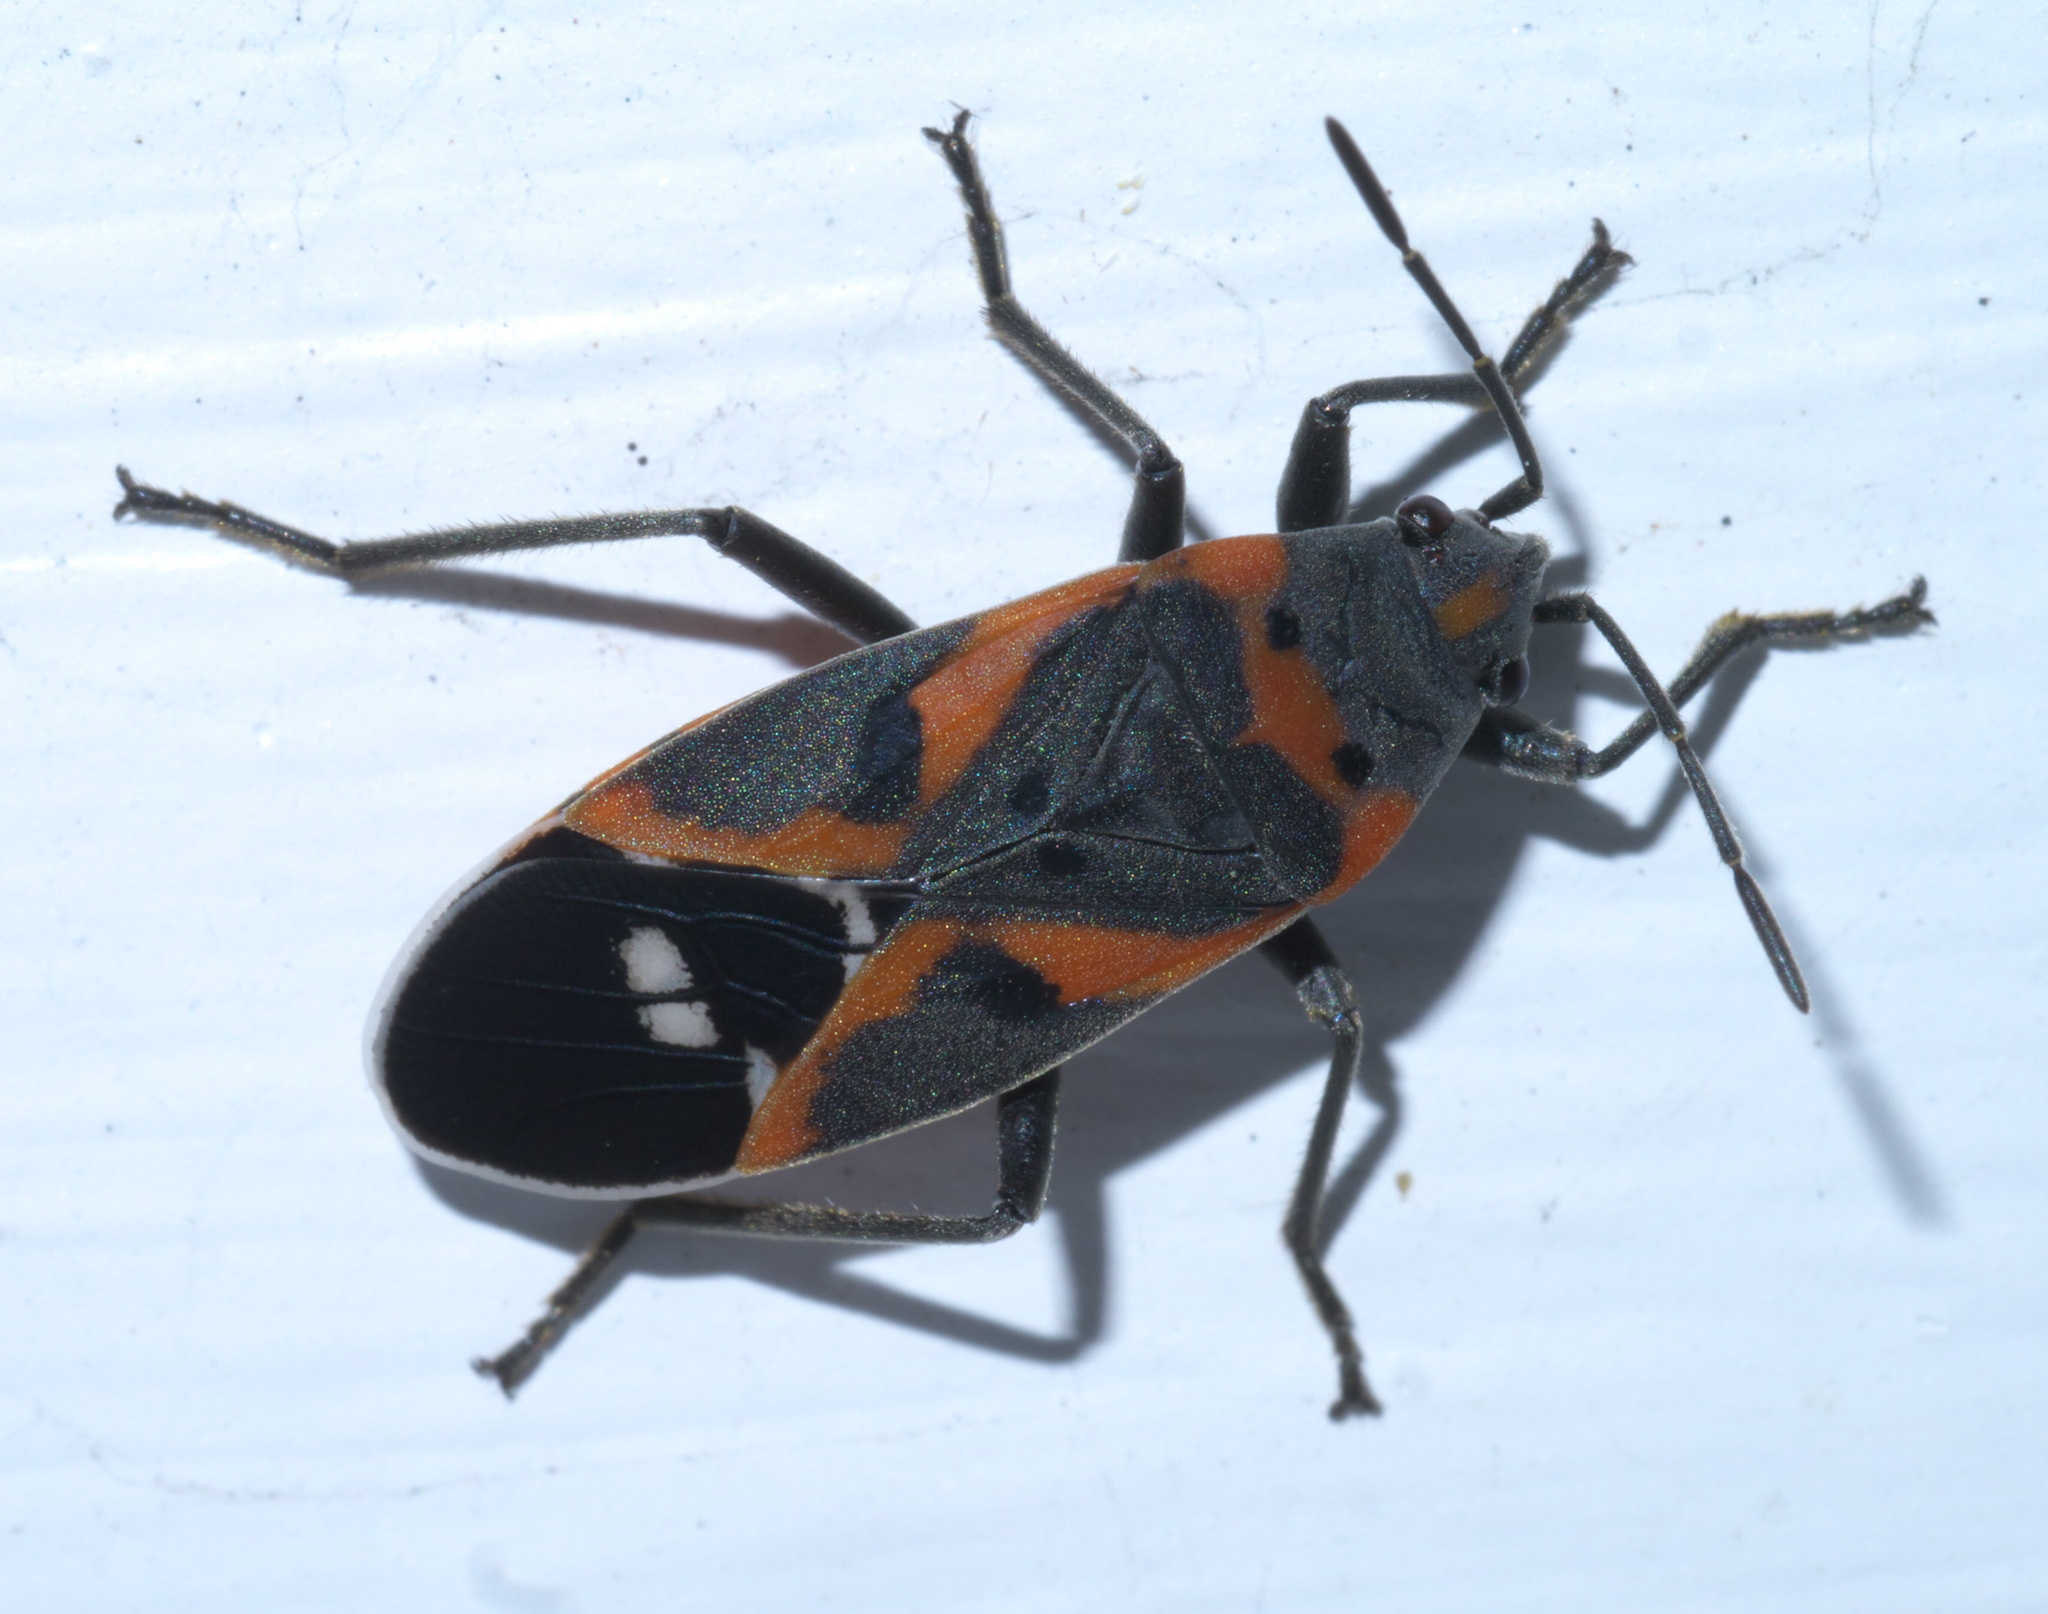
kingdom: Animalia
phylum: Arthropoda
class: Insecta
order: Hemiptera
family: Lygaeidae
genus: Lygaeus
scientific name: Lygaeus kalmii
